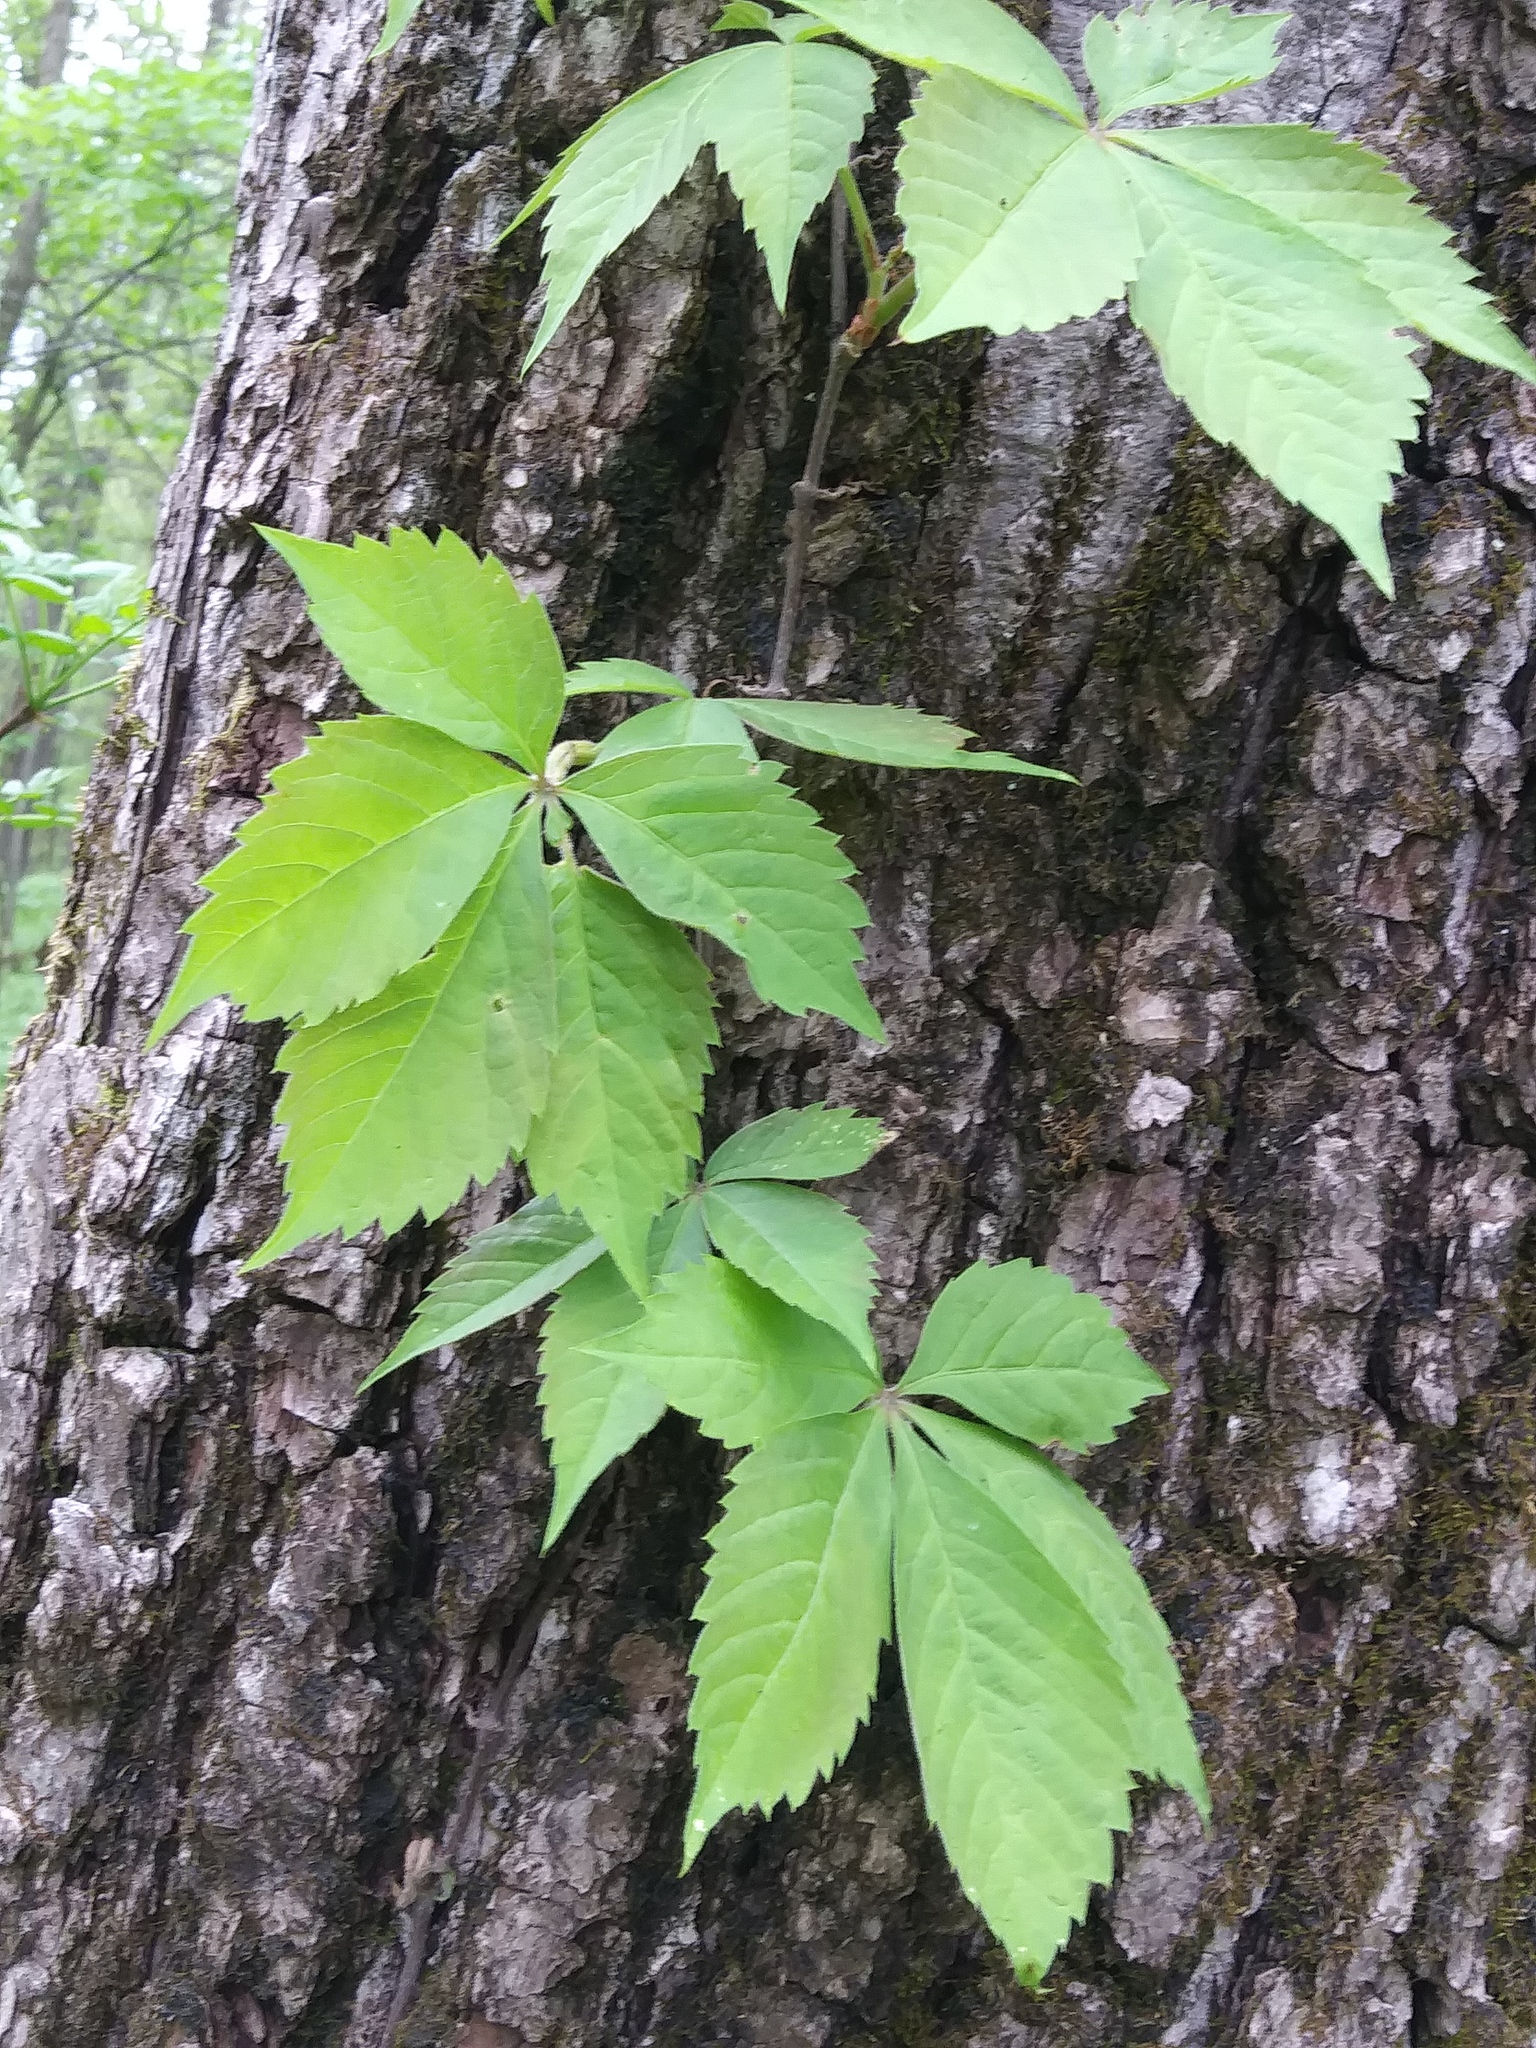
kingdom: Plantae
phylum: Tracheophyta
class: Magnoliopsida
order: Vitales
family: Vitaceae
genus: Parthenocissus
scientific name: Parthenocissus quinquefolia
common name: Virginia-creeper
